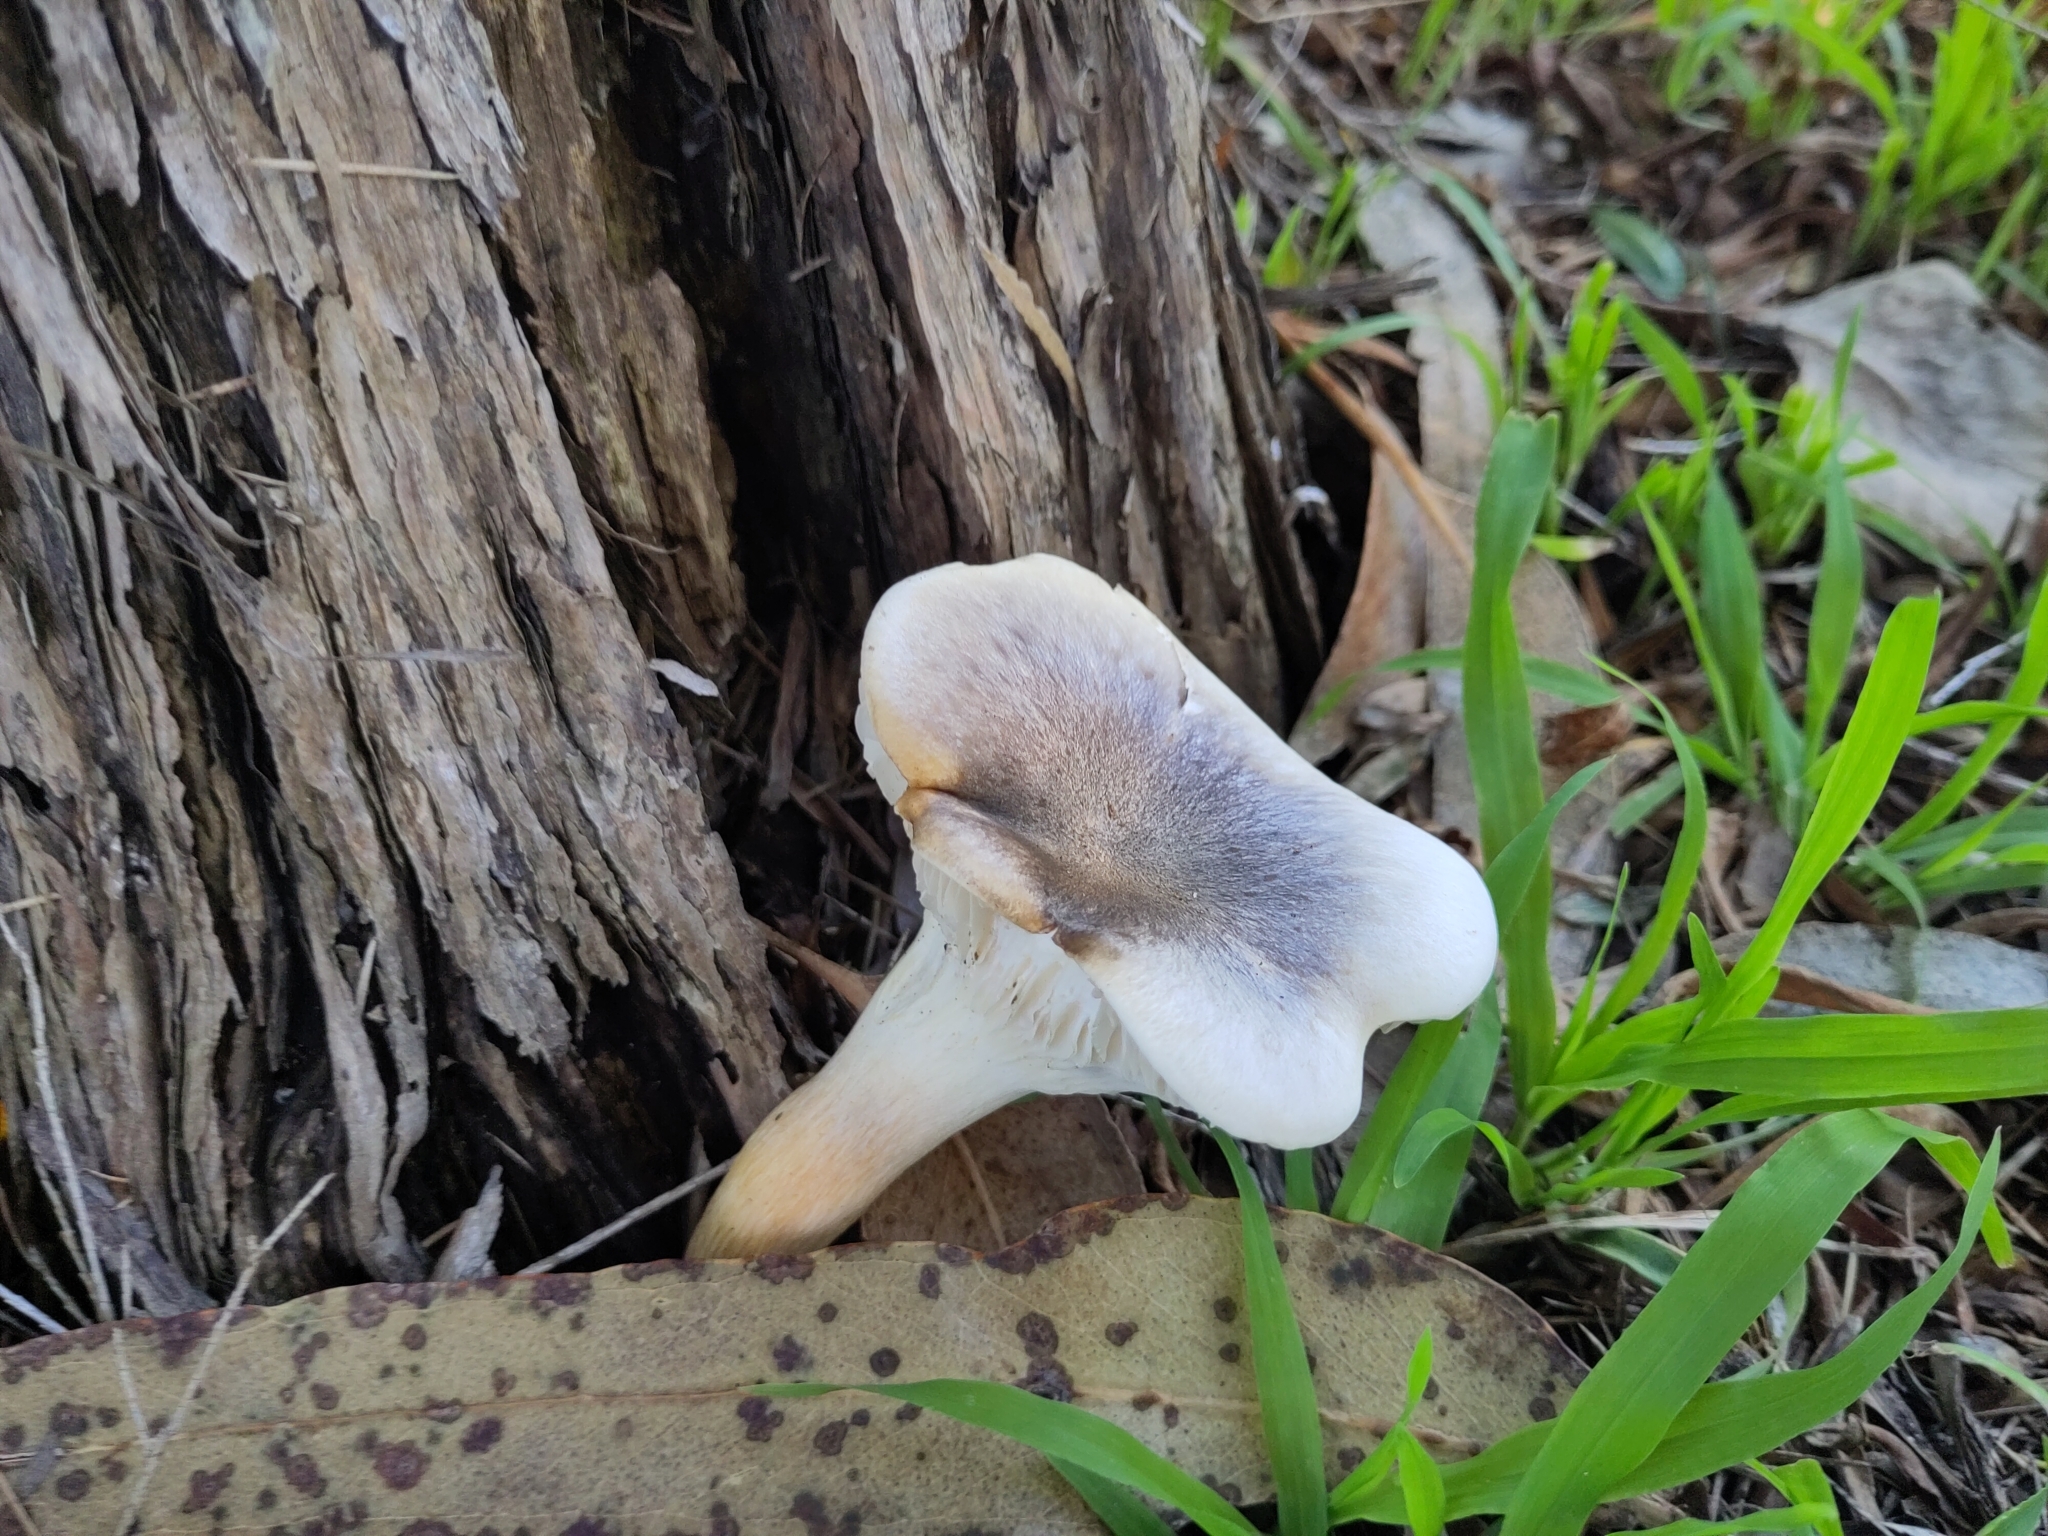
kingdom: Fungi
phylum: Basidiomycota
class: Agaricomycetes
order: Agaricales
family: Omphalotaceae
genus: Omphalotus
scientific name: Omphalotus nidiformis
